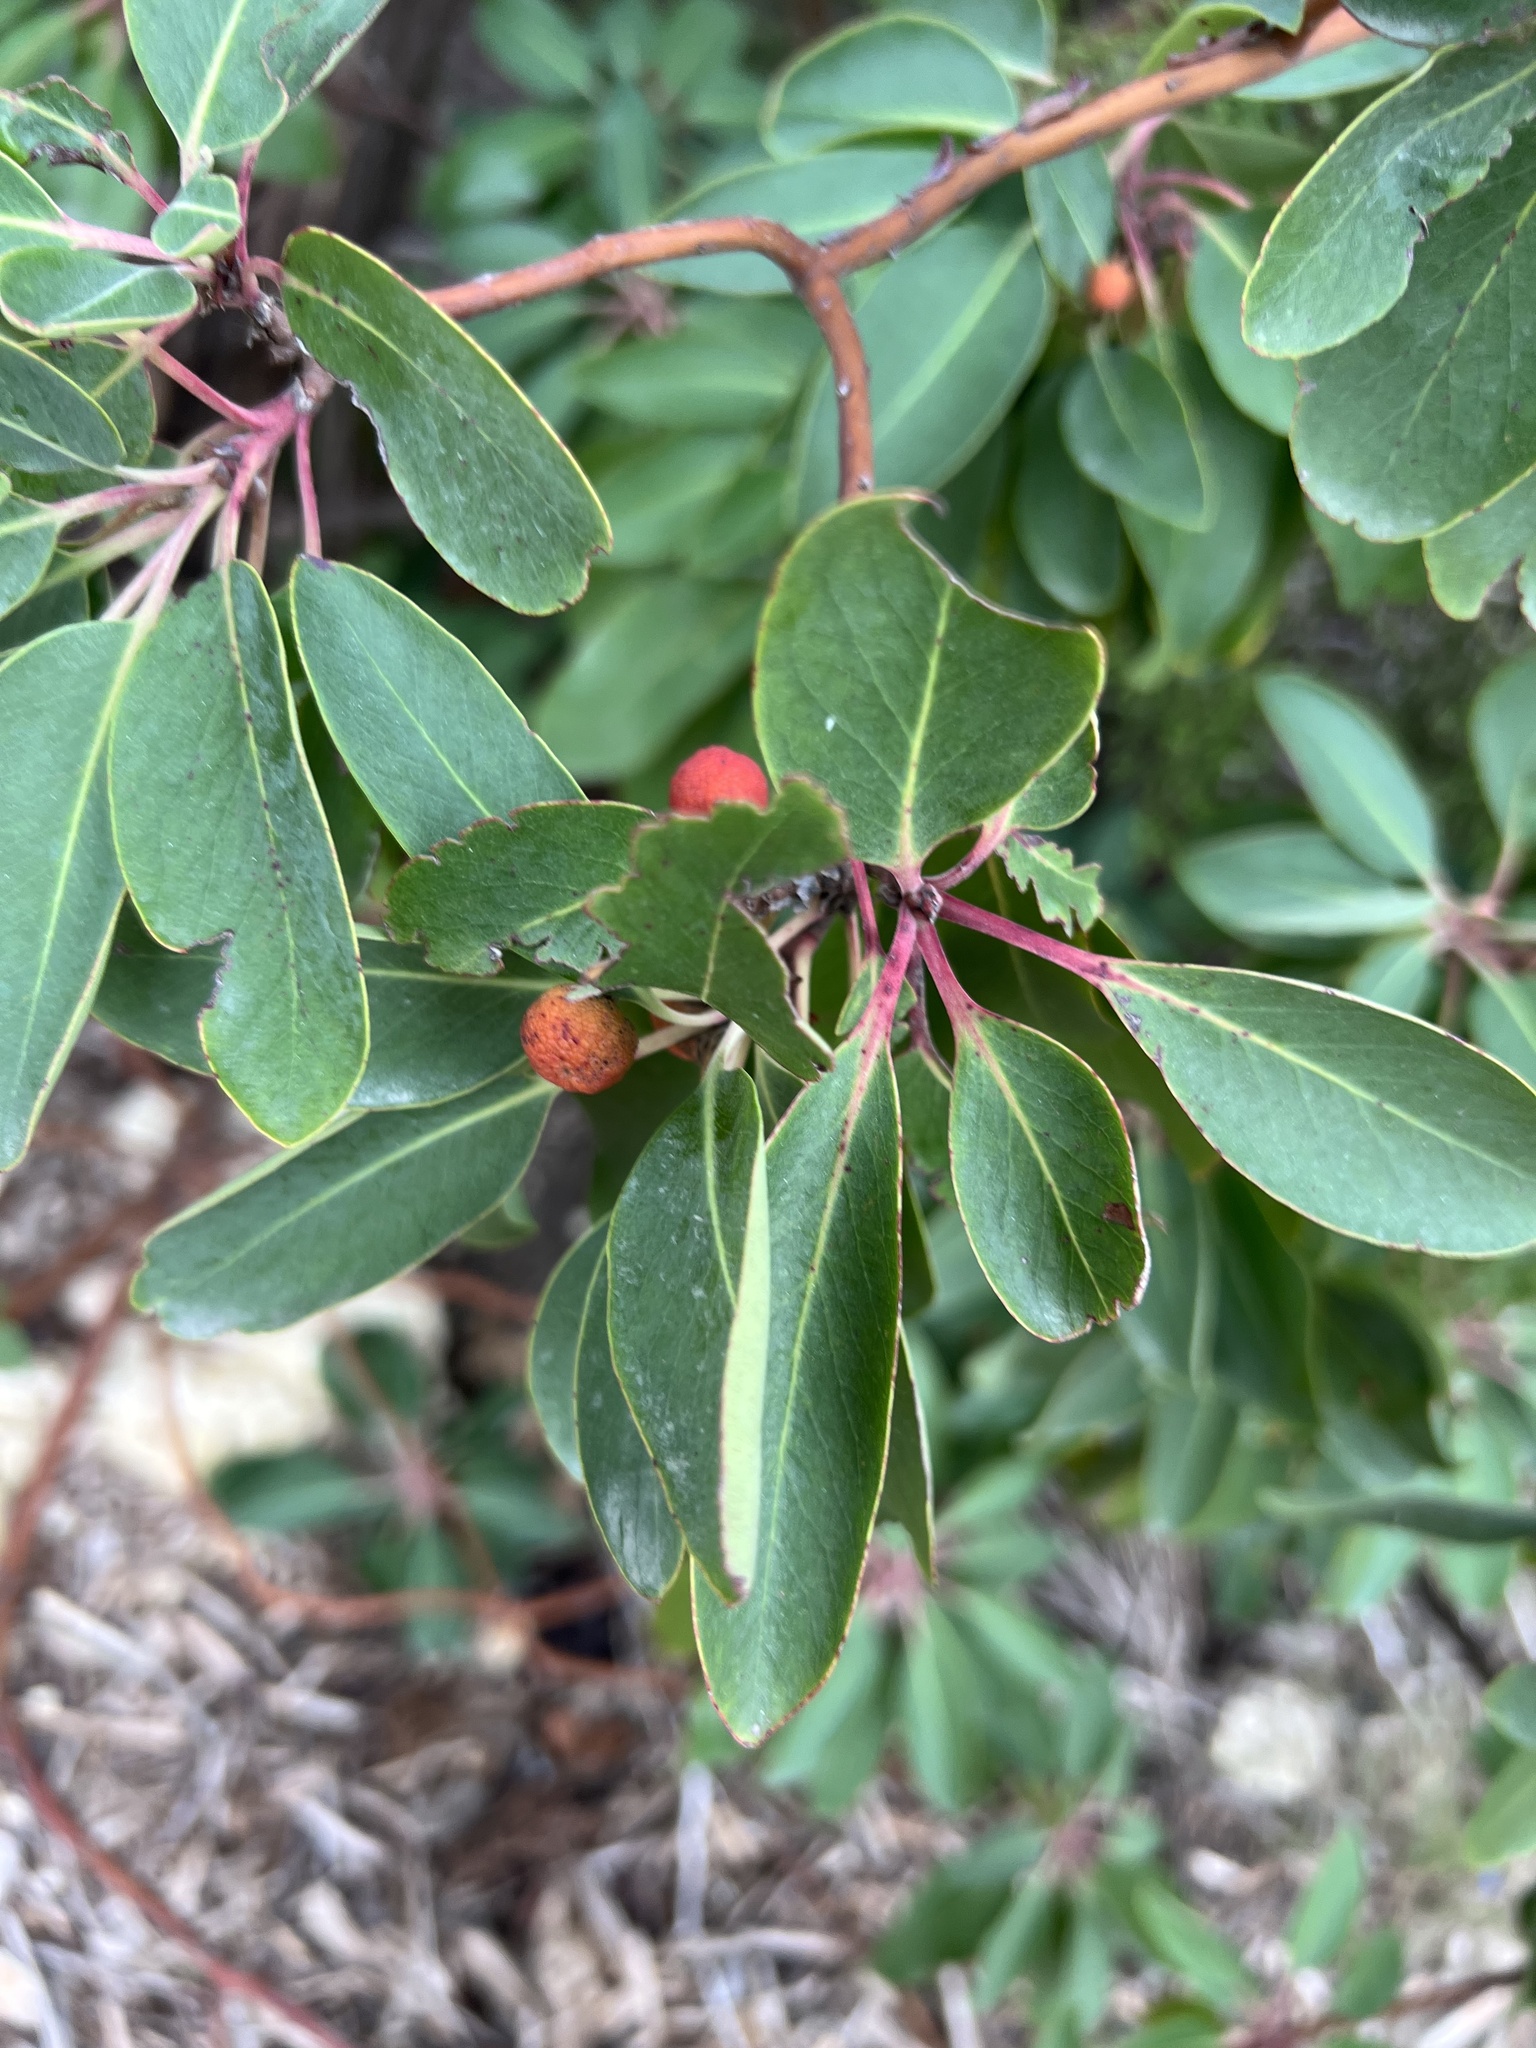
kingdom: Plantae
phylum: Tracheophyta
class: Magnoliopsida
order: Ericales
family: Ericaceae
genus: Arbutus
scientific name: Arbutus xalapensis
